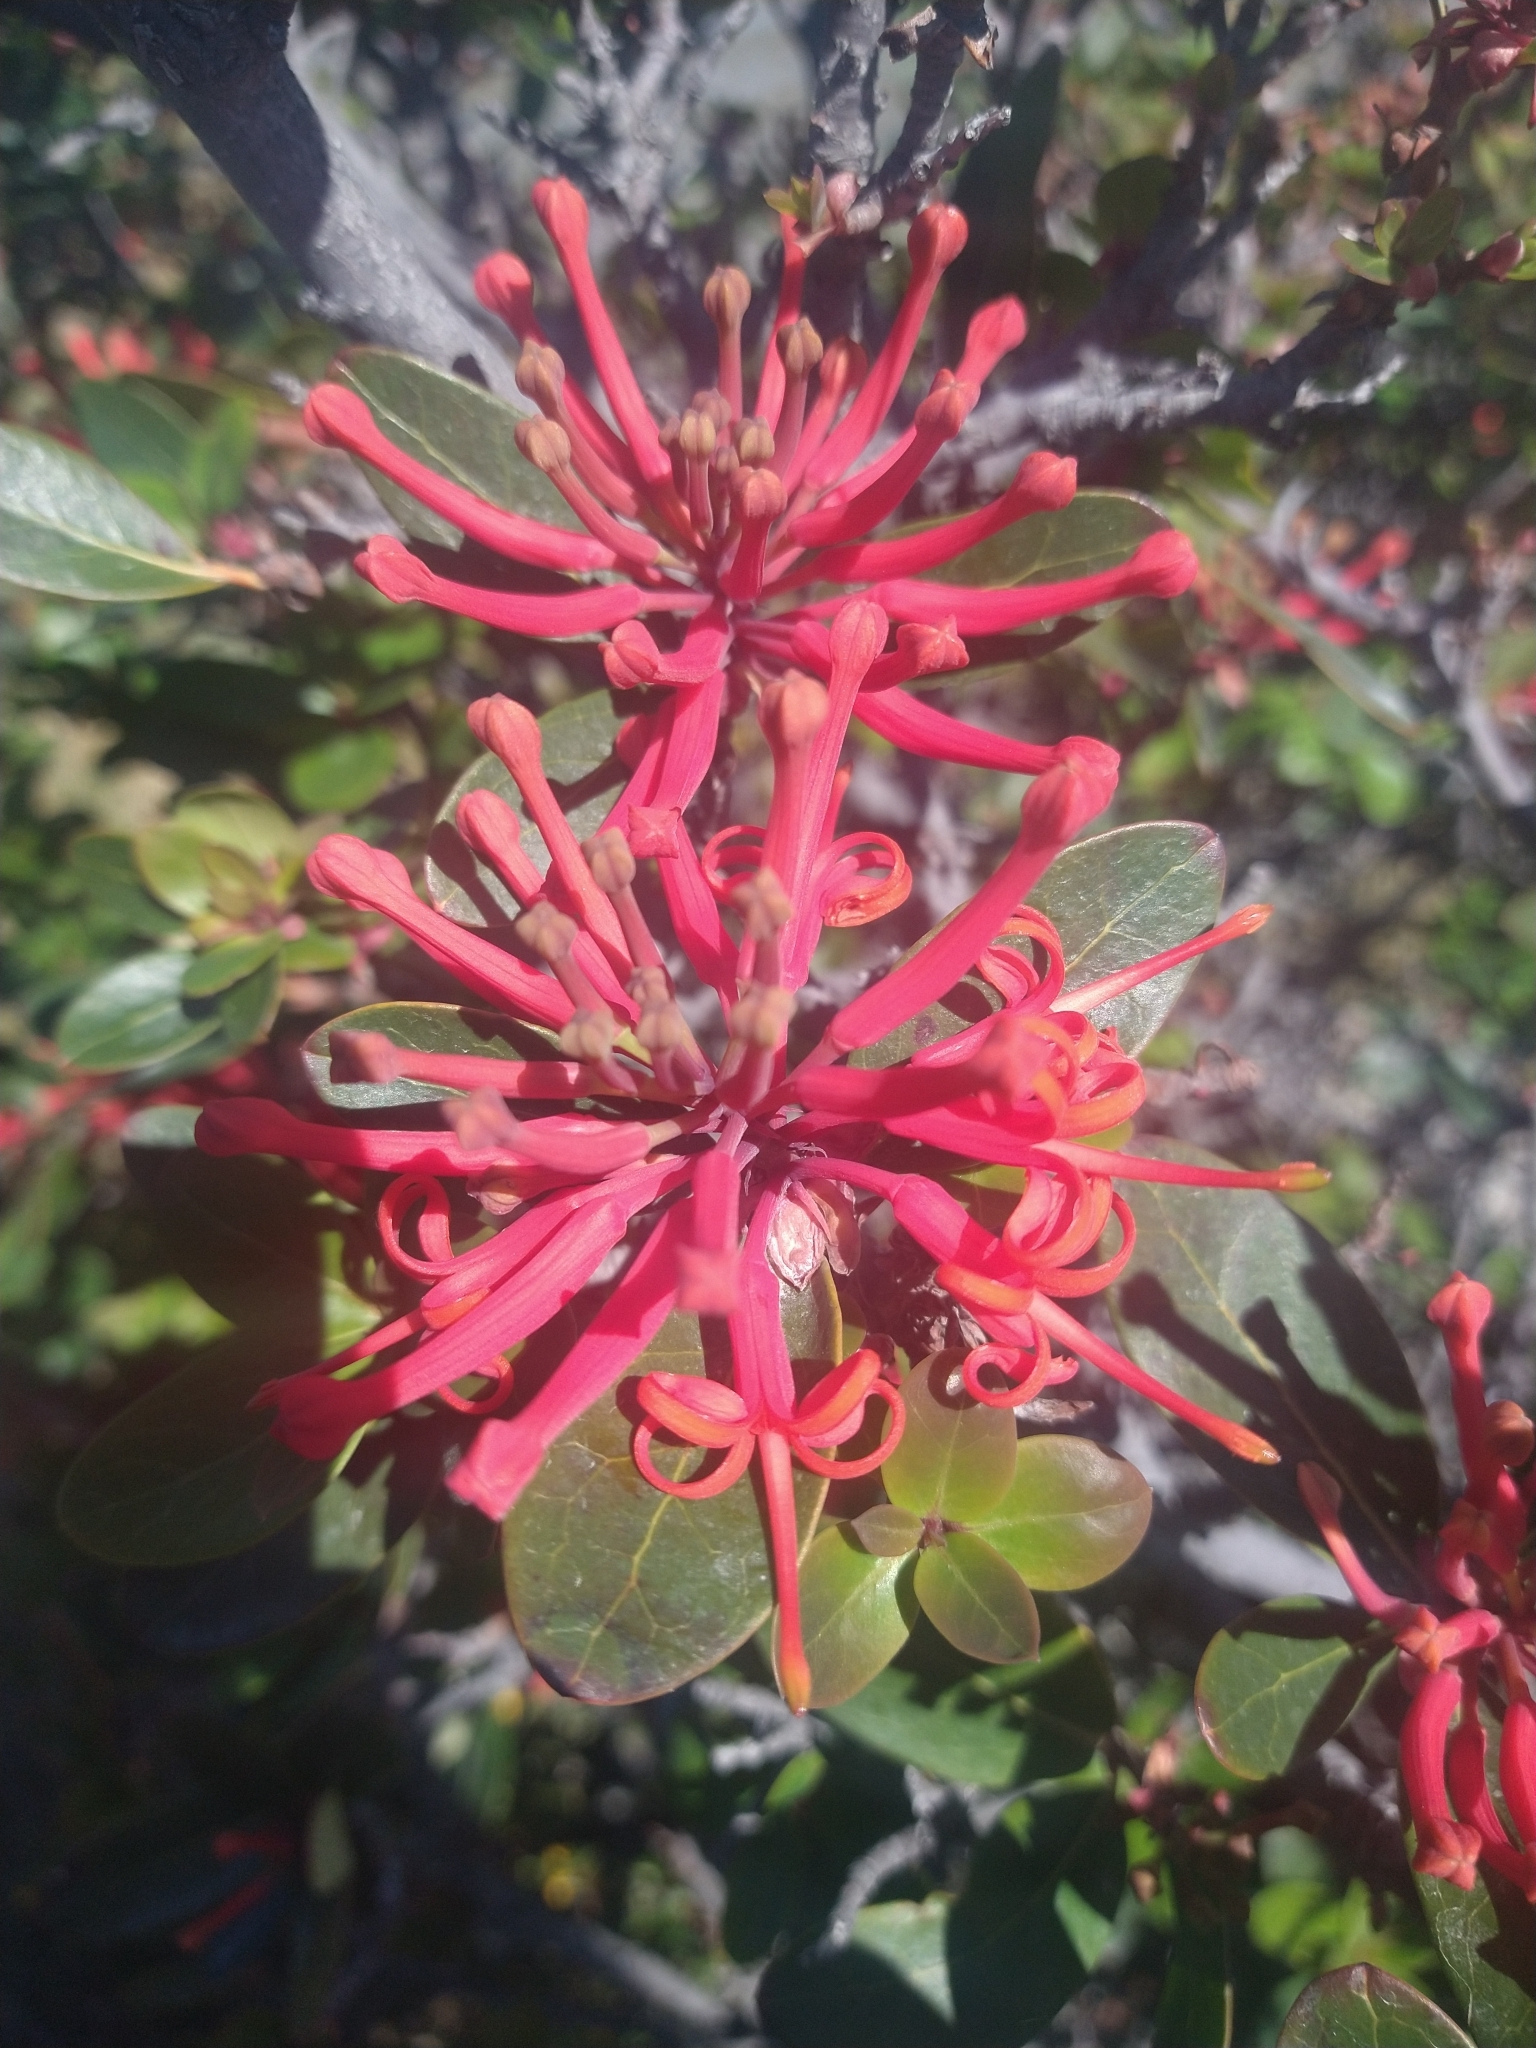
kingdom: Plantae
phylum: Tracheophyta
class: Magnoliopsida
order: Proteales
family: Proteaceae
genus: Embothrium
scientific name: Embothrium coccineum
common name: Chilean firebush
